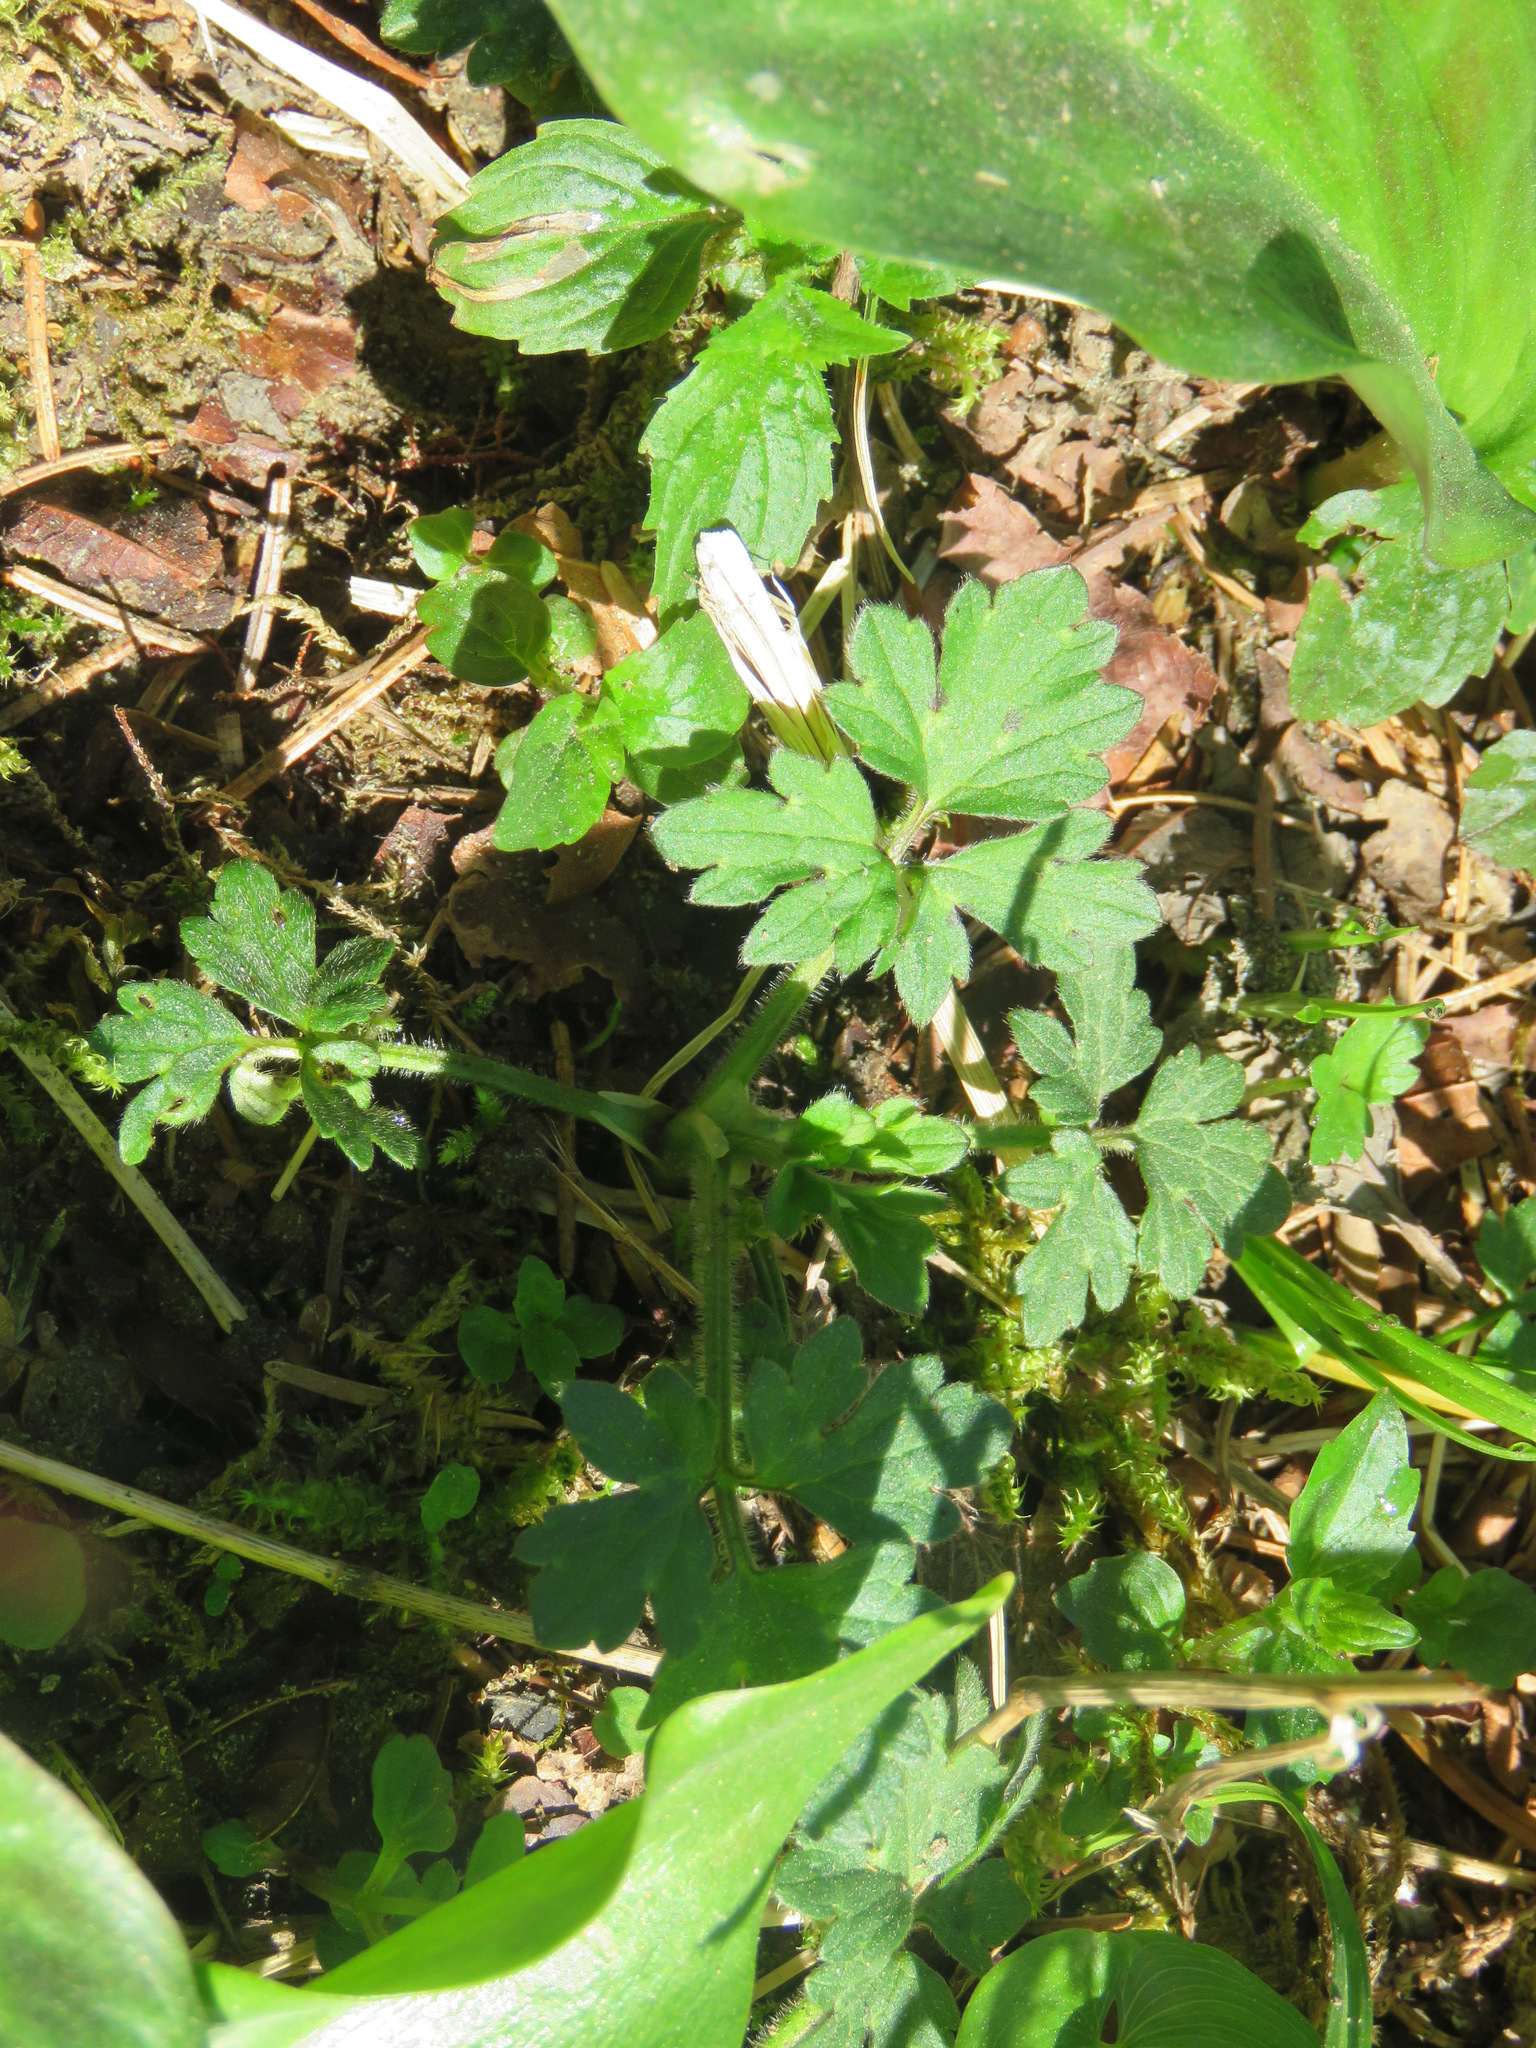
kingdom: Plantae
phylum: Tracheophyta
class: Magnoliopsida
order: Ranunculales
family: Ranunculaceae
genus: Ranunculus
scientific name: Ranunculus repens
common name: Creeping buttercup
